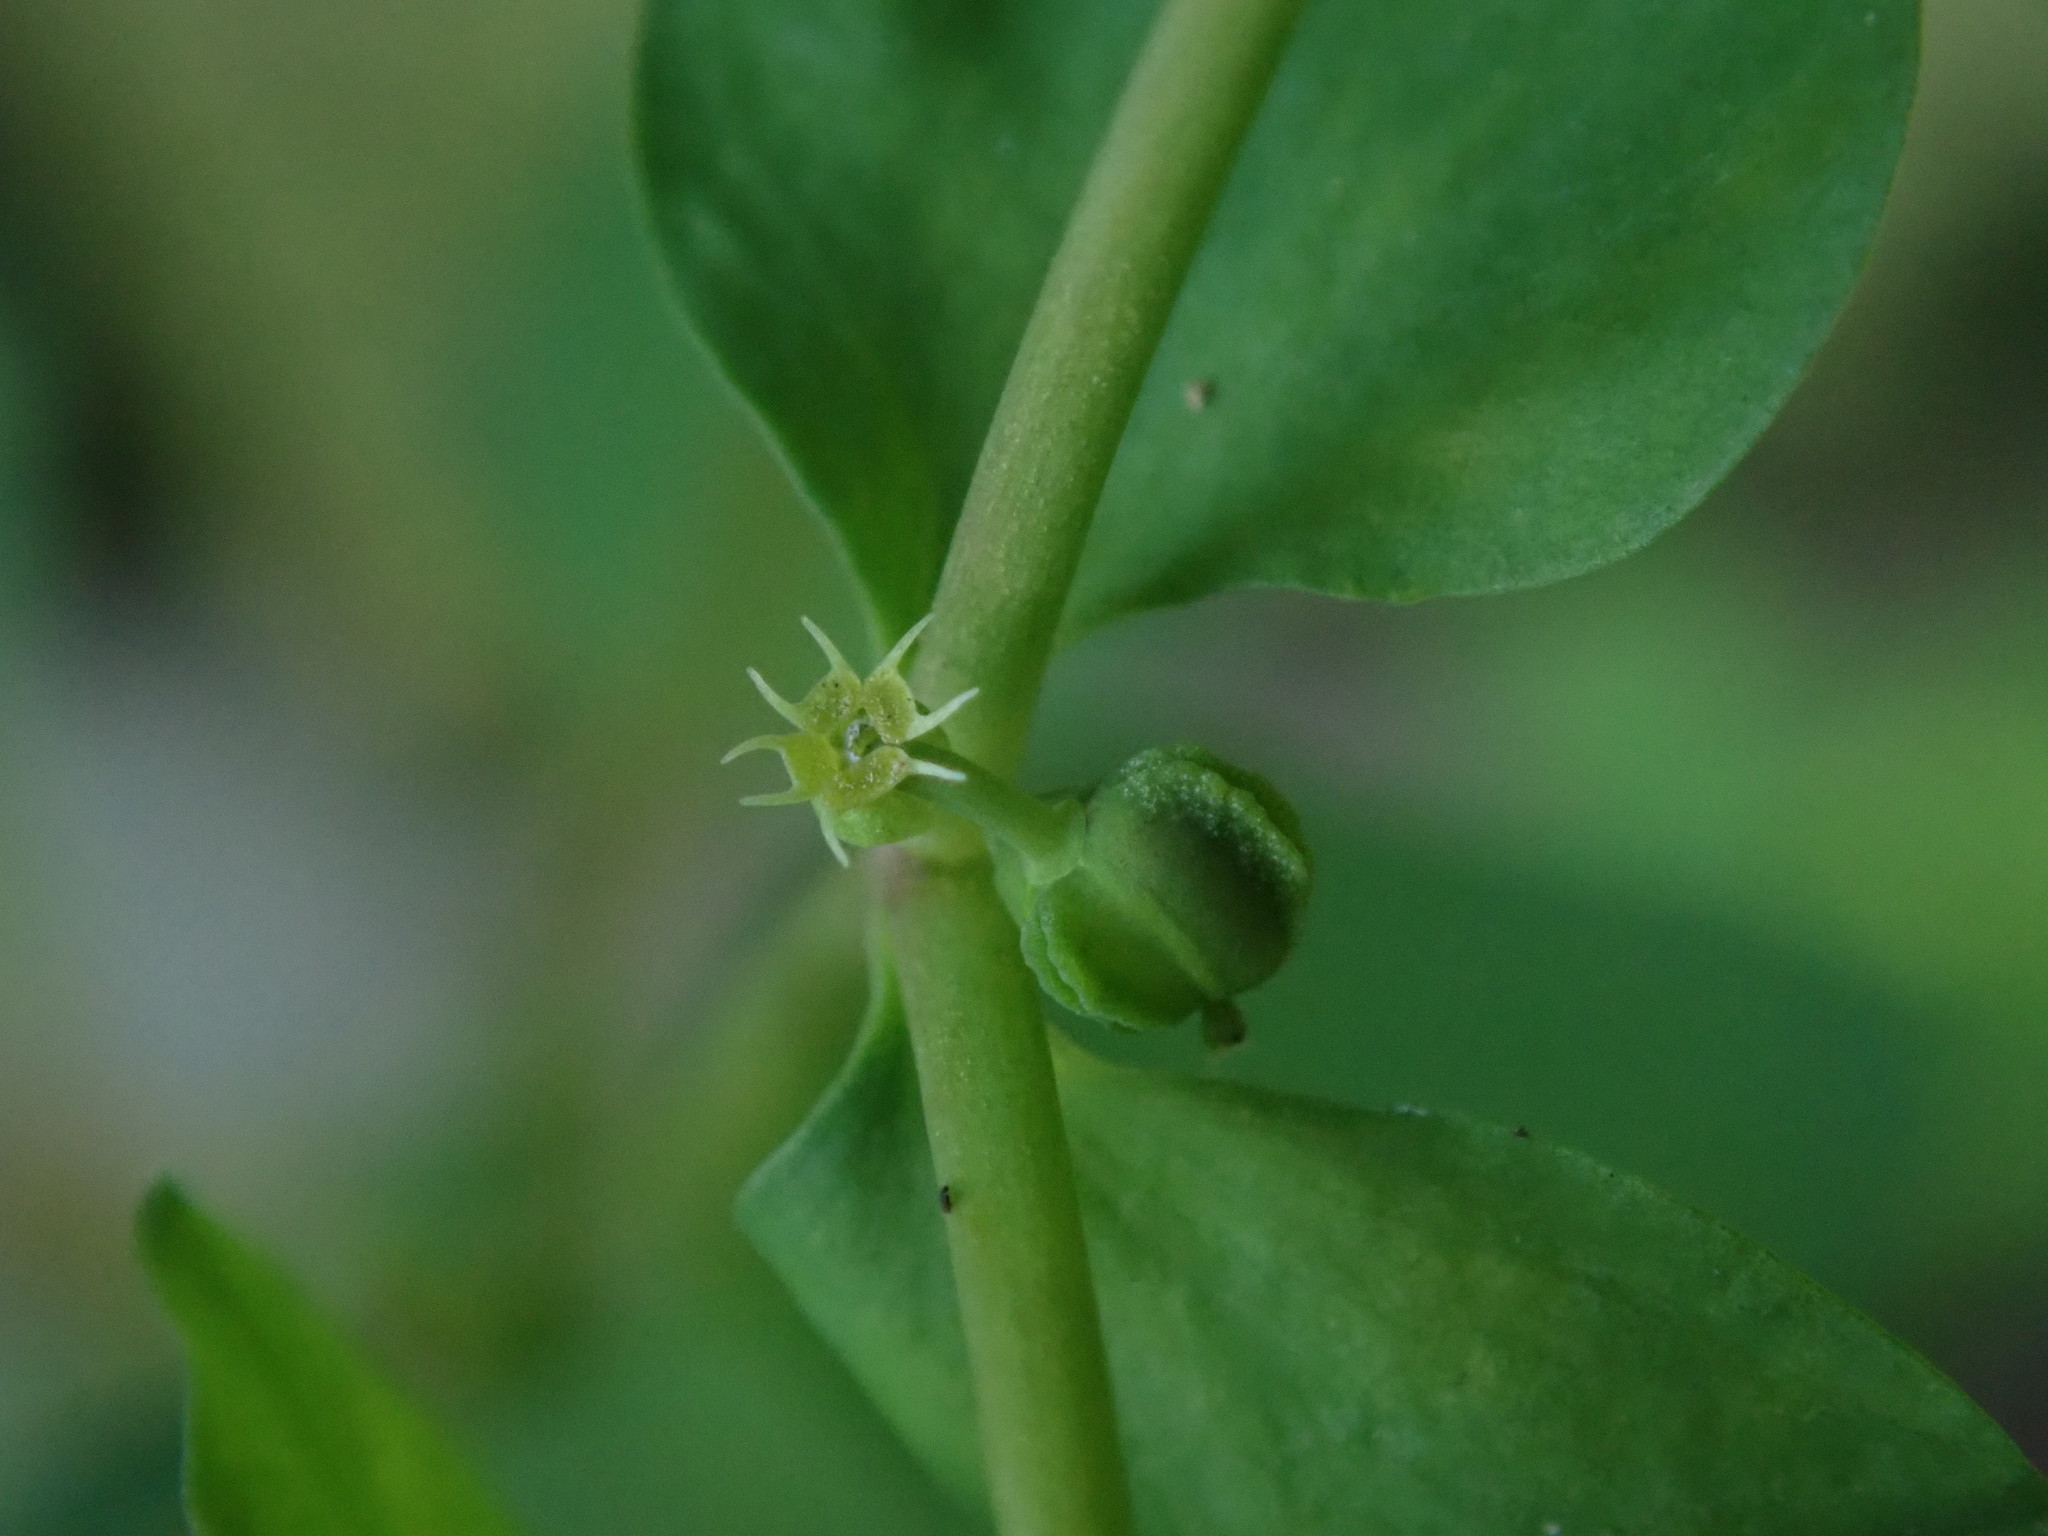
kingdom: Plantae
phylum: Tracheophyta
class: Magnoliopsida
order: Malpighiales
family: Euphorbiaceae
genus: Euphorbia
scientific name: Euphorbia peplus
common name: Petty spurge
